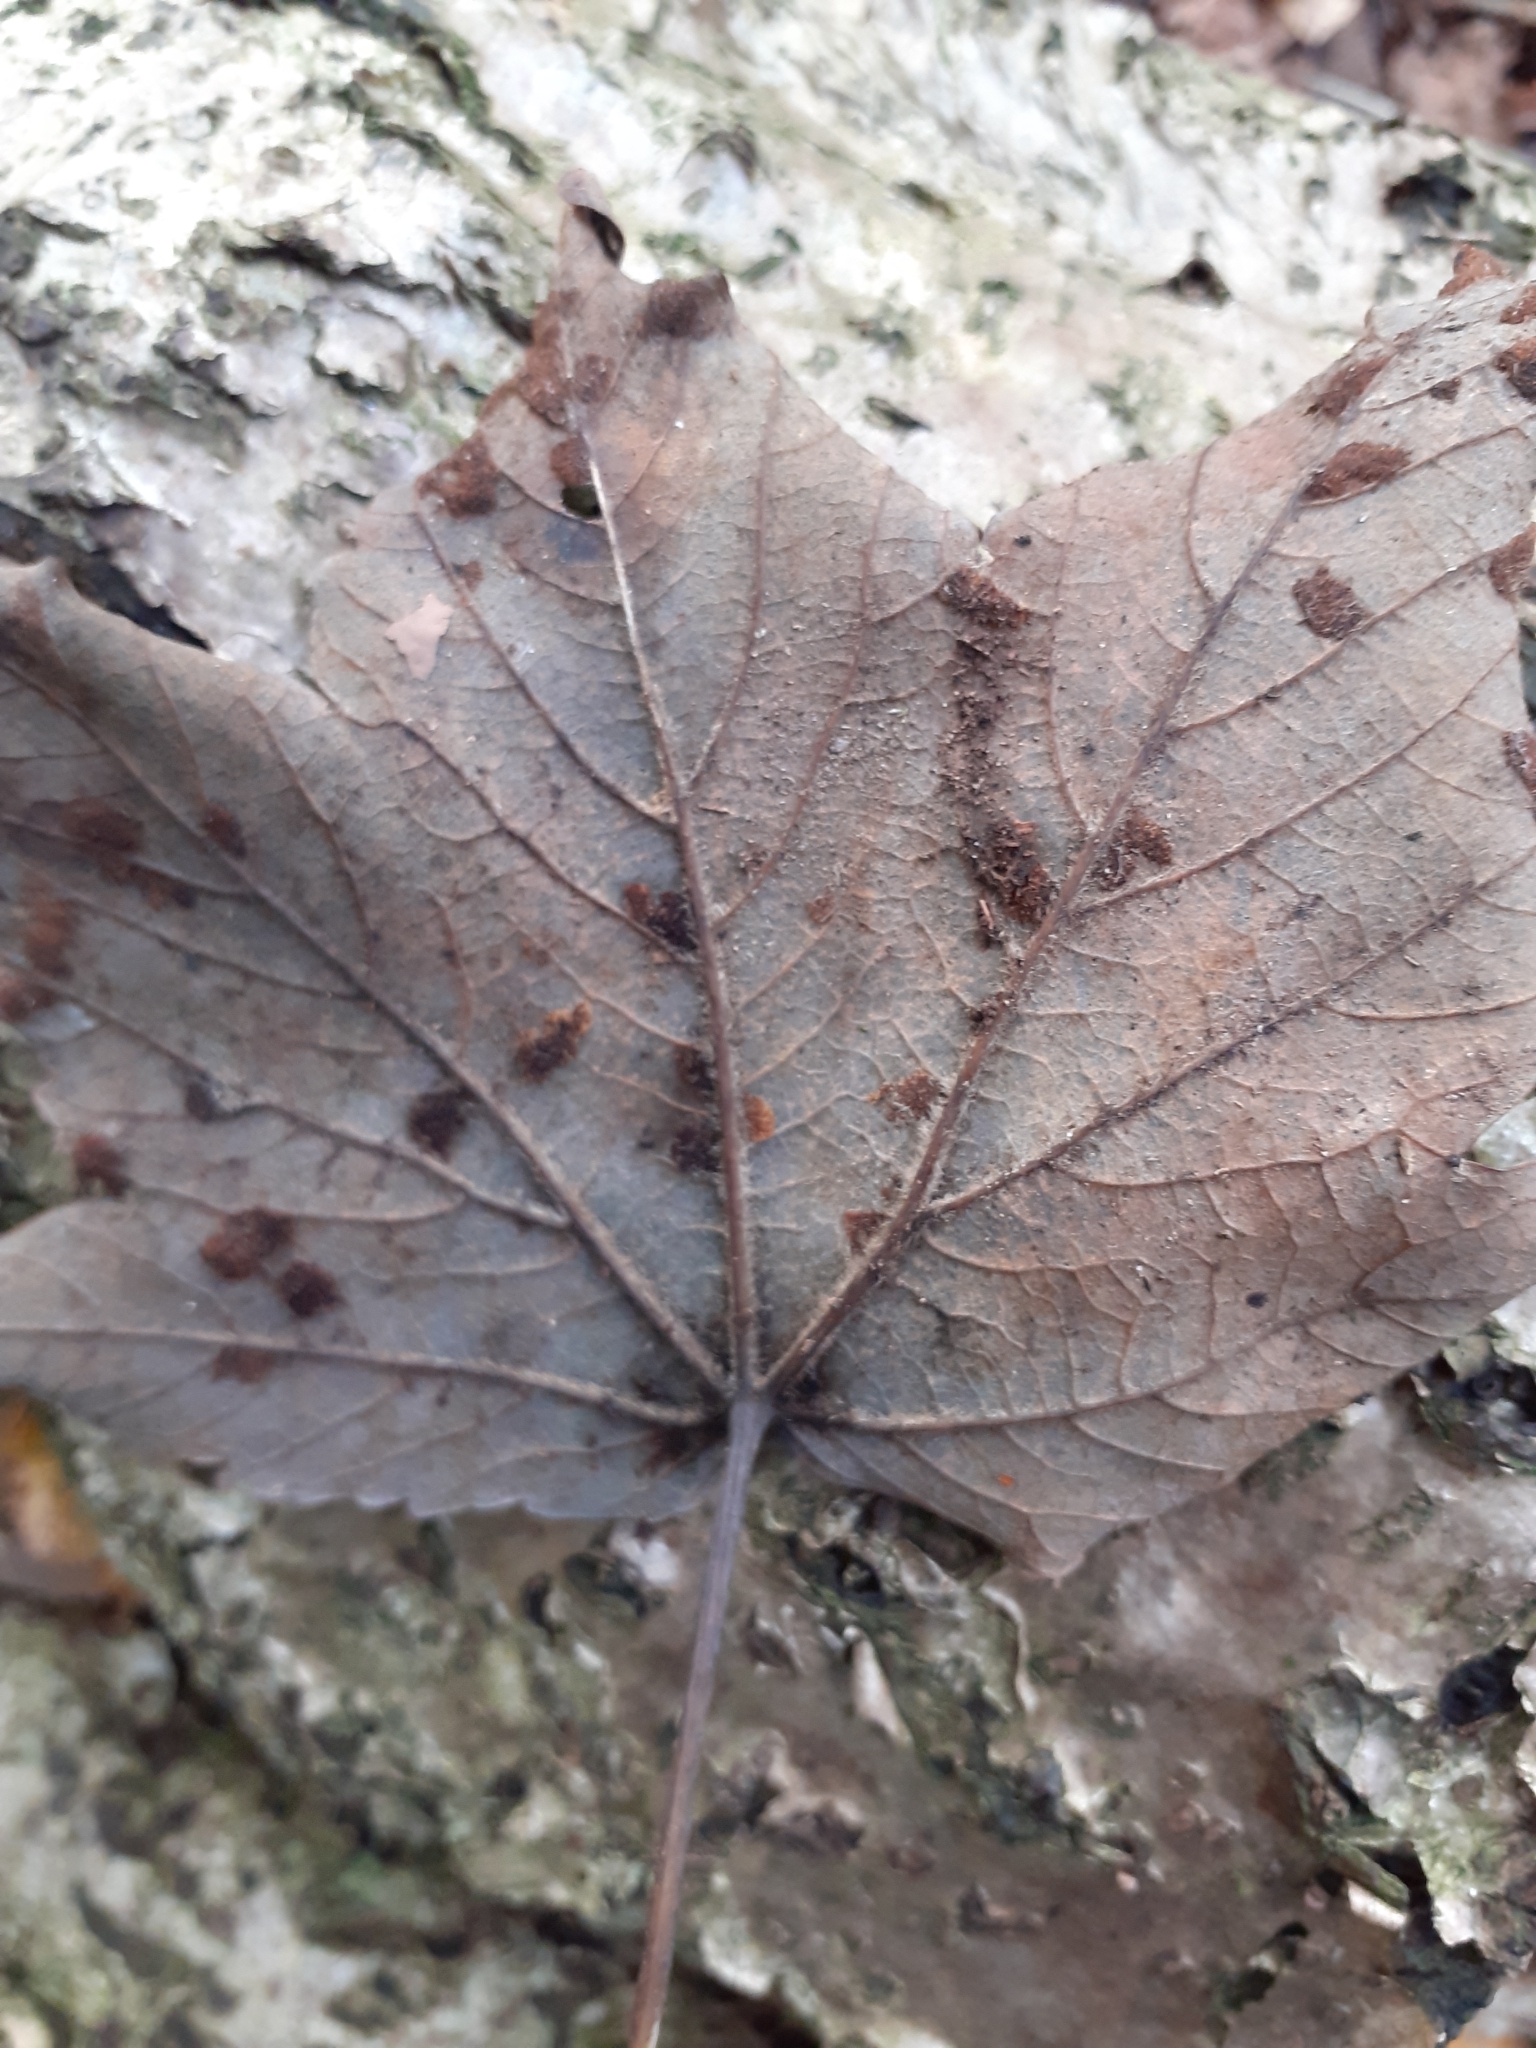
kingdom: Animalia
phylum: Arthropoda
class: Arachnida
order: Trombidiformes
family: Eriophyidae
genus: Aceria
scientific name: Aceria pseudoplatani
